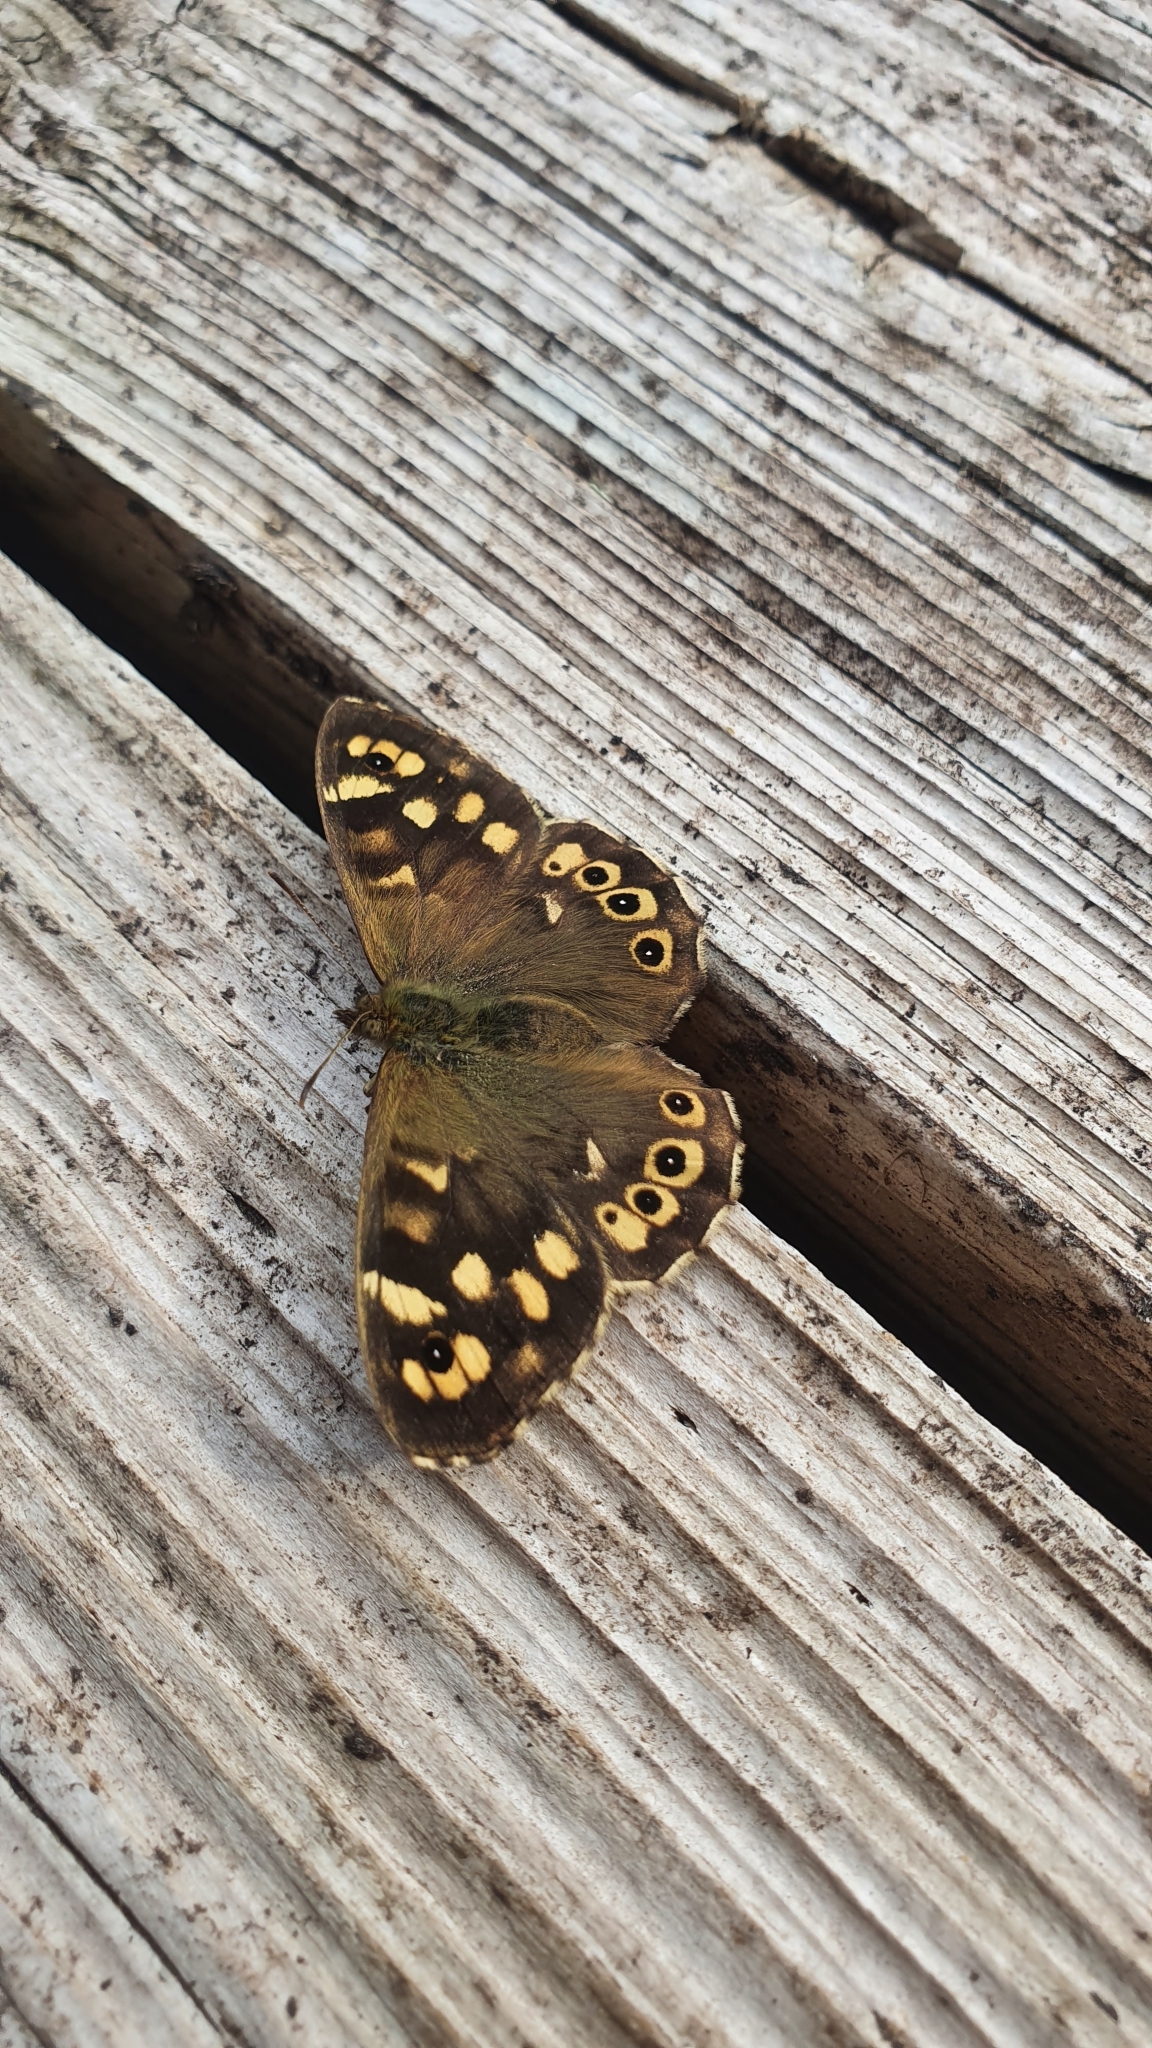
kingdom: Animalia
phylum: Arthropoda
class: Insecta
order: Lepidoptera
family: Nymphalidae
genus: Pararge
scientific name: Pararge aegeria
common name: Speckled wood
